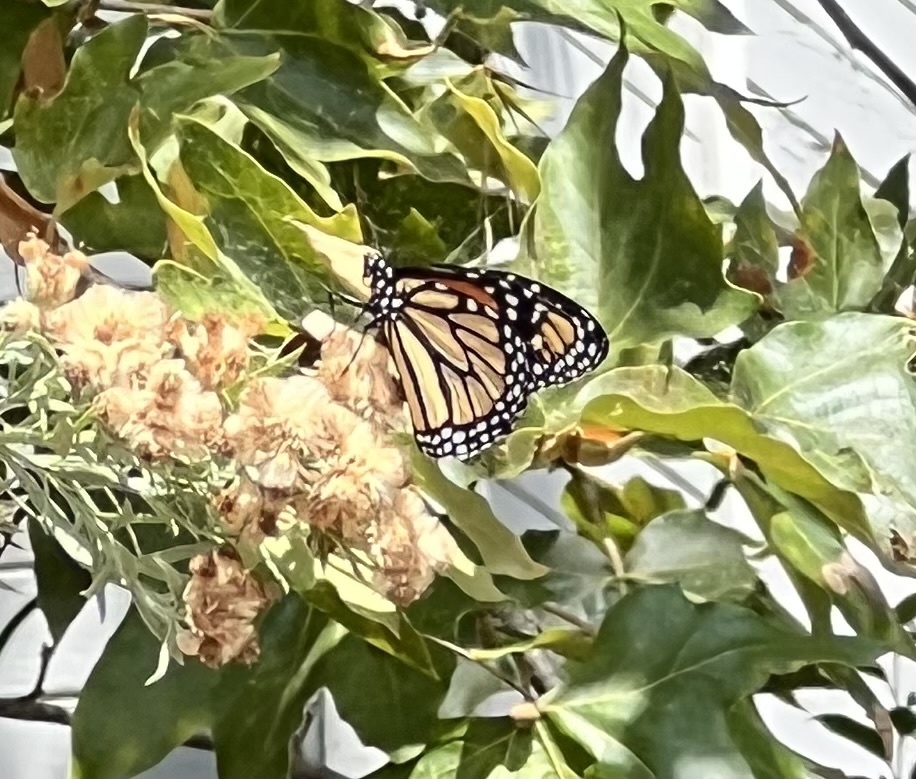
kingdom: Animalia
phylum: Arthropoda
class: Insecta
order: Lepidoptera
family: Nymphalidae
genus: Danaus
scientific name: Danaus plexippus
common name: Monarch
